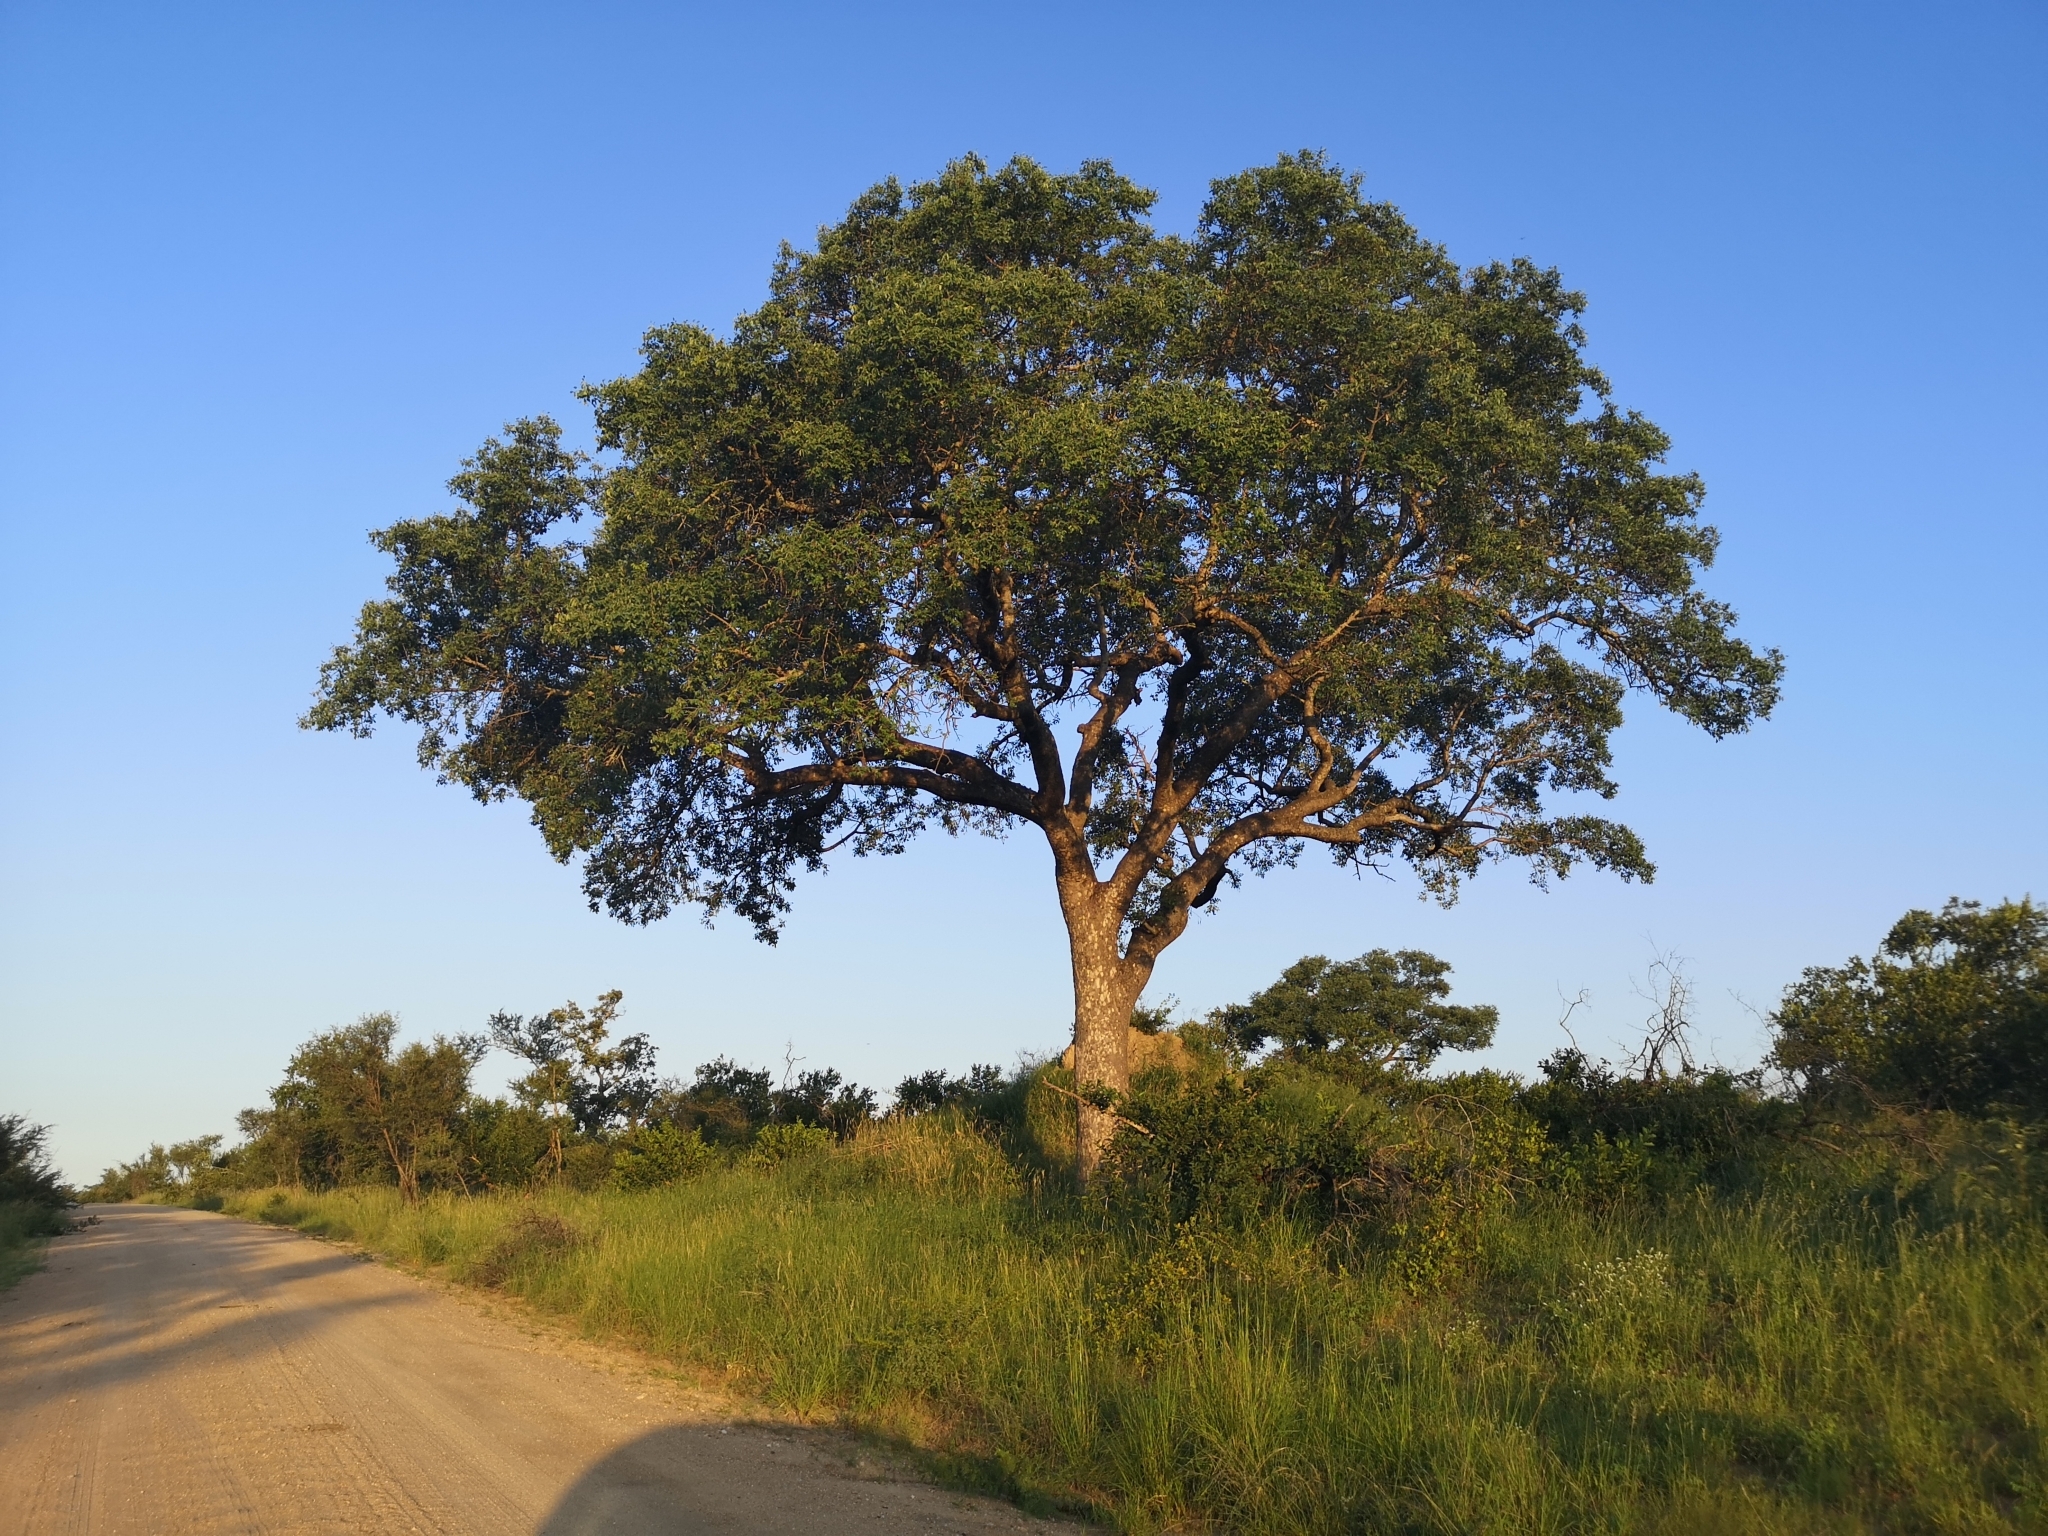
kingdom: Plantae
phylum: Tracheophyta
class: Magnoliopsida
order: Sapindales
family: Anacardiaceae
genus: Sclerocarya
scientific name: Sclerocarya birrea
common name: Marula
